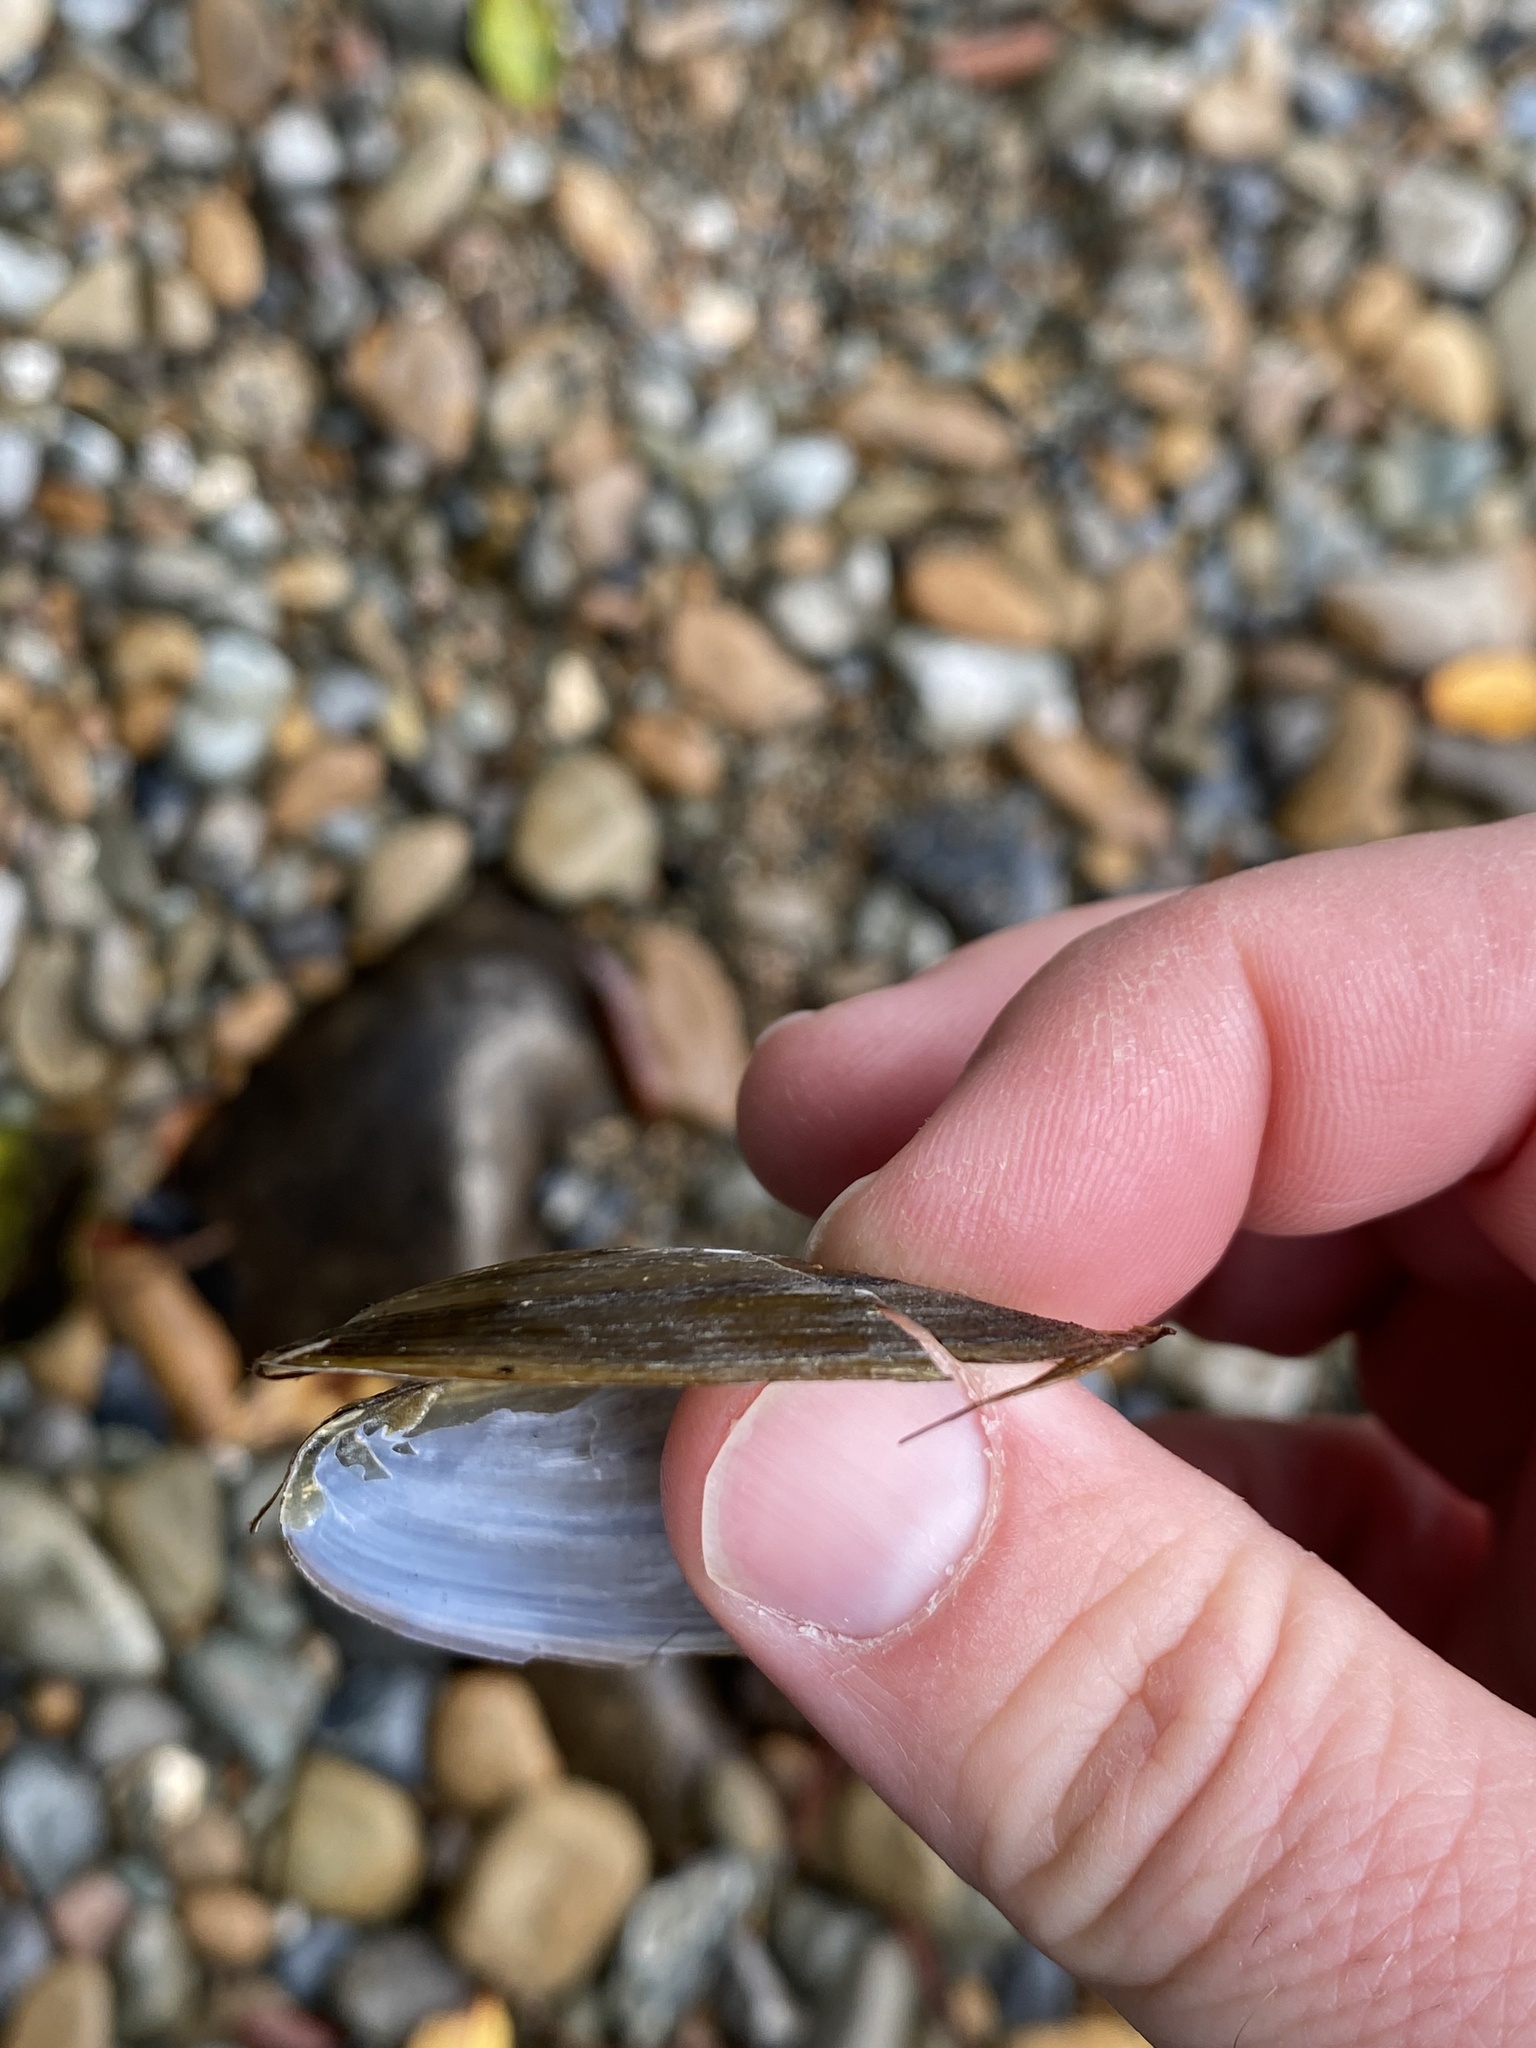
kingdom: Animalia
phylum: Mollusca
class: Bivalvia
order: Unionida
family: Hyriidae
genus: Echyridella
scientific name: Echyridella menziesii
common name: New zealand freshwater mussel
